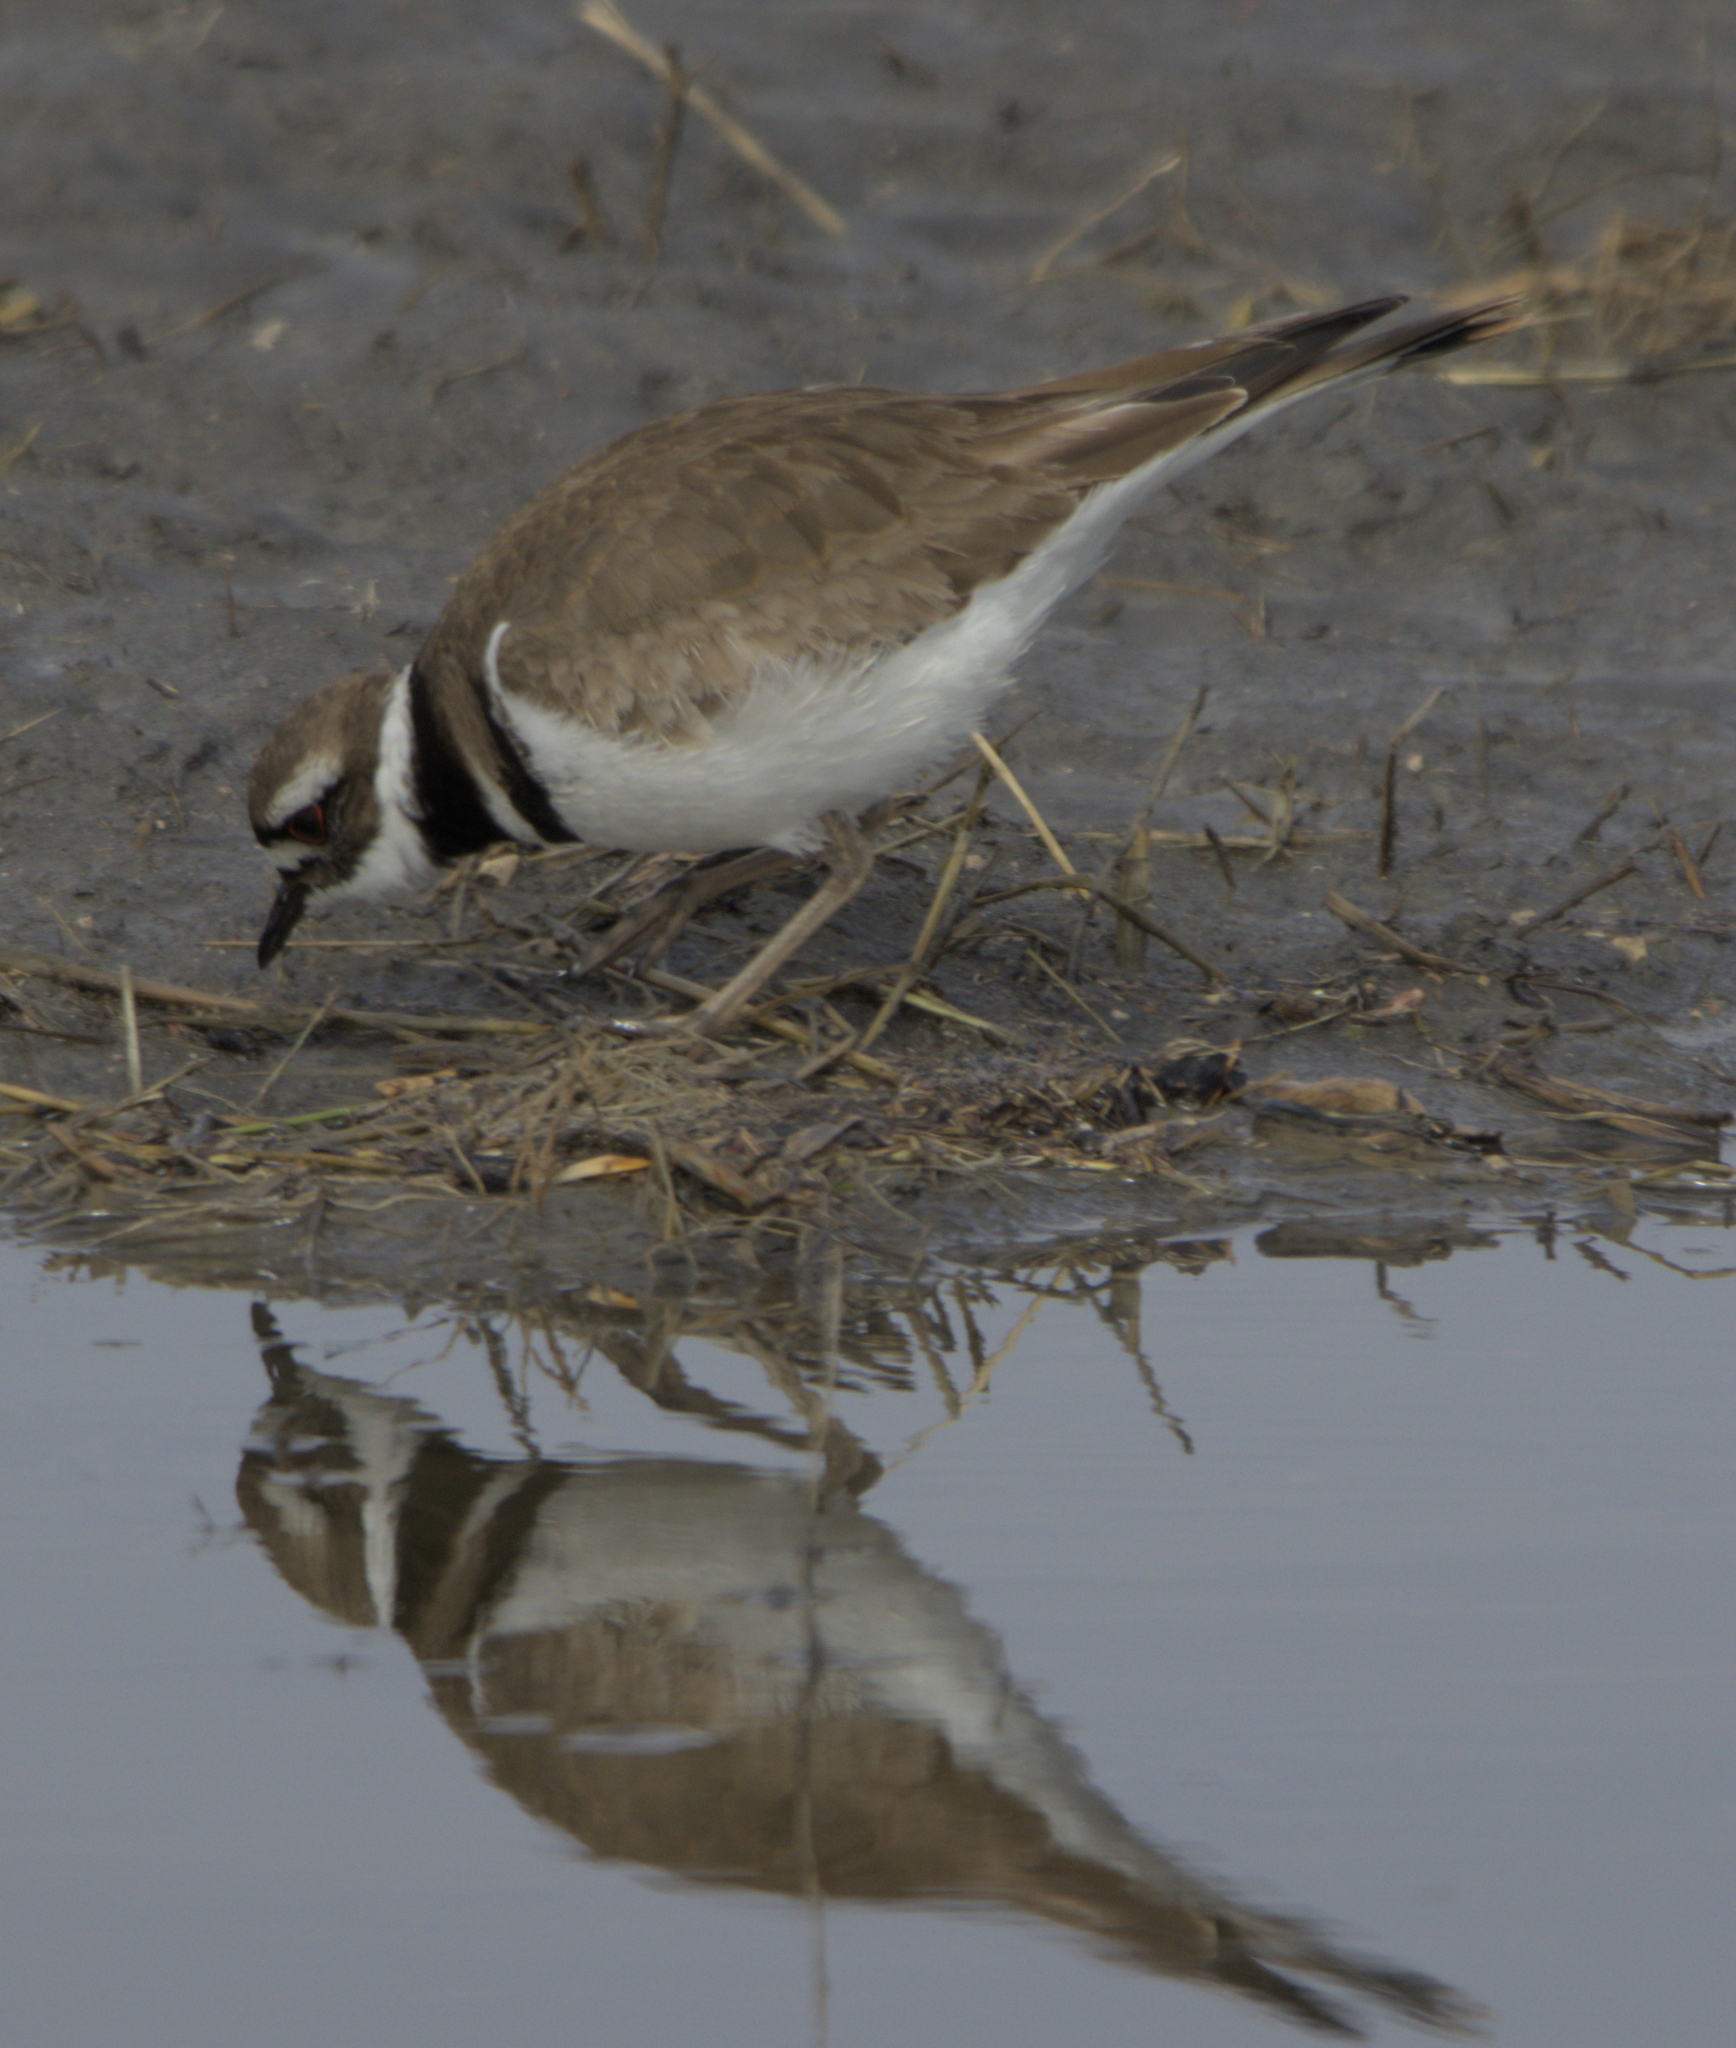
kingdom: Animalia
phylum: Chordata
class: Aves
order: Charadriiformes
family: Charadriidae
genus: Charadrius
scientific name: Charadrius vociferus
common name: Killdeer
